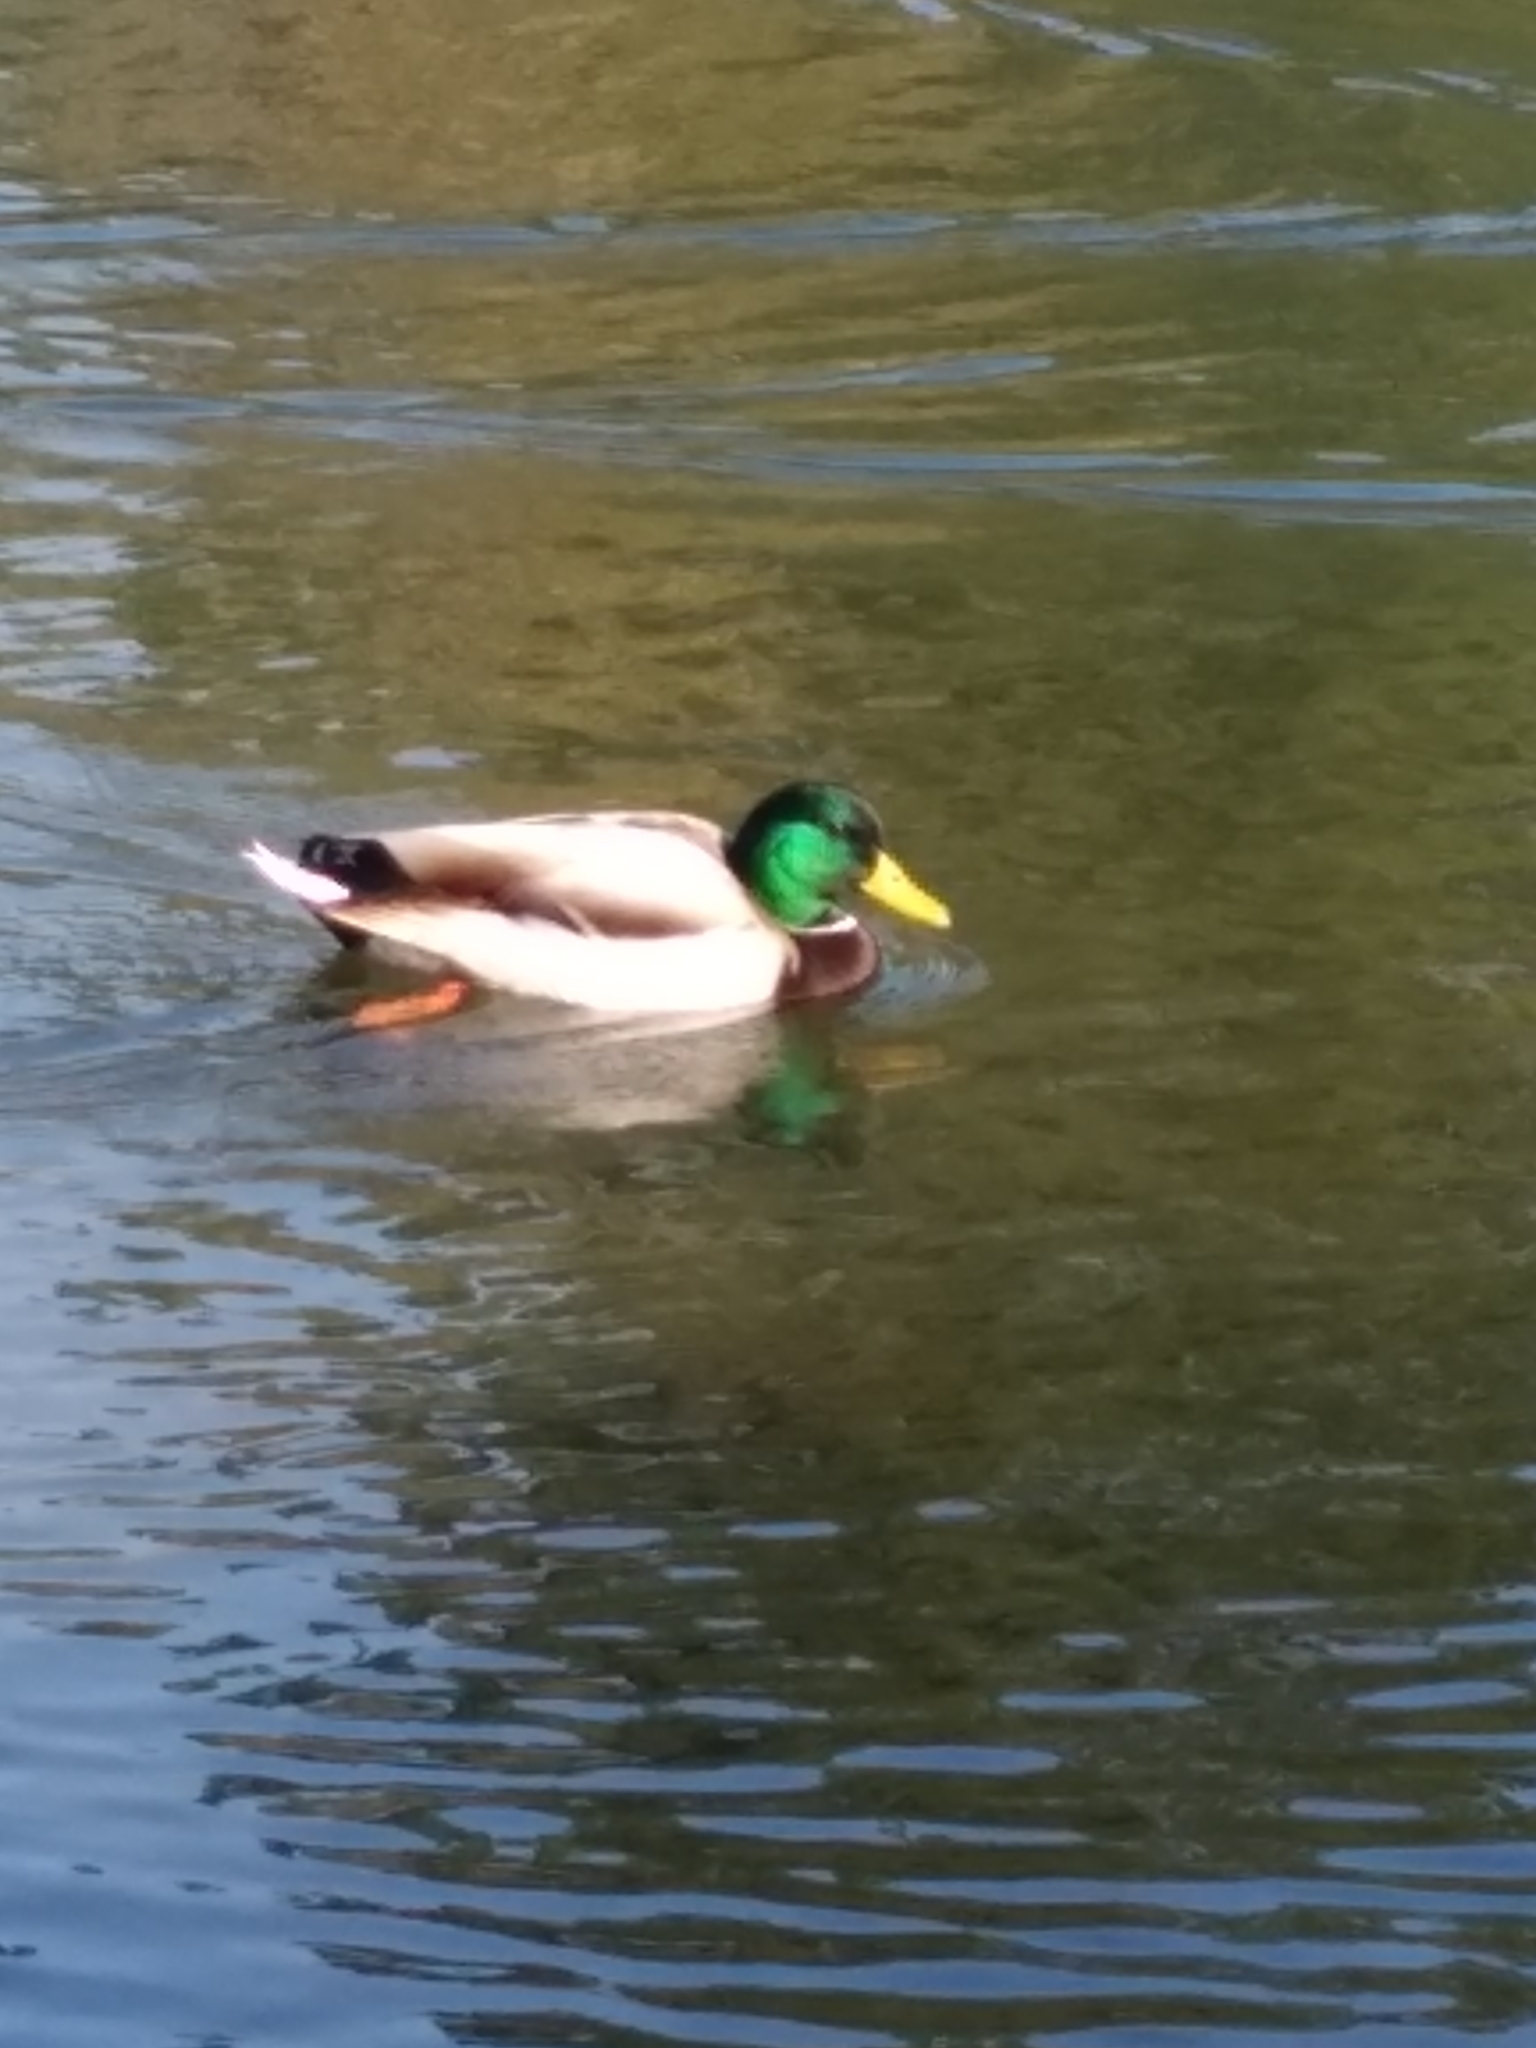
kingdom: Animalia
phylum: Chordata
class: Aves
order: Anseriformes
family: Anatidae
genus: Anas
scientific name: Anas platyrhynchos
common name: Mallard
